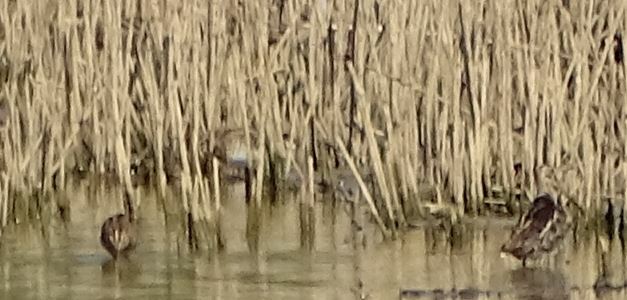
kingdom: Animalia
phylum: Chordata
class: Aves
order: Charadriiformes
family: Scolopacidae
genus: Gallinago
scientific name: Gallinago gallinago
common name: Common snipe
